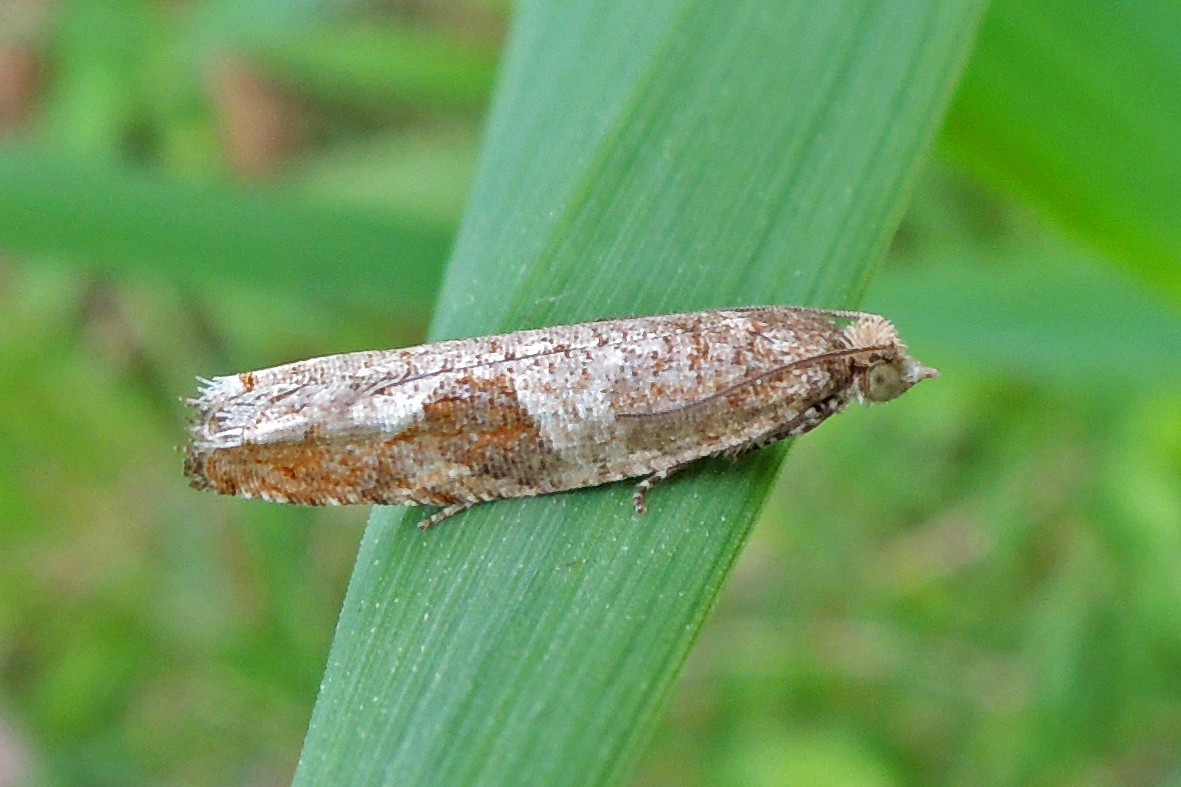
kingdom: Animalia
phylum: Arthropoda
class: Insecta
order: Lepidoptera
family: Tortricidae
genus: Pseudexentera
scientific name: Pseudexentera virginiana
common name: Virginia pseudexentera moth
